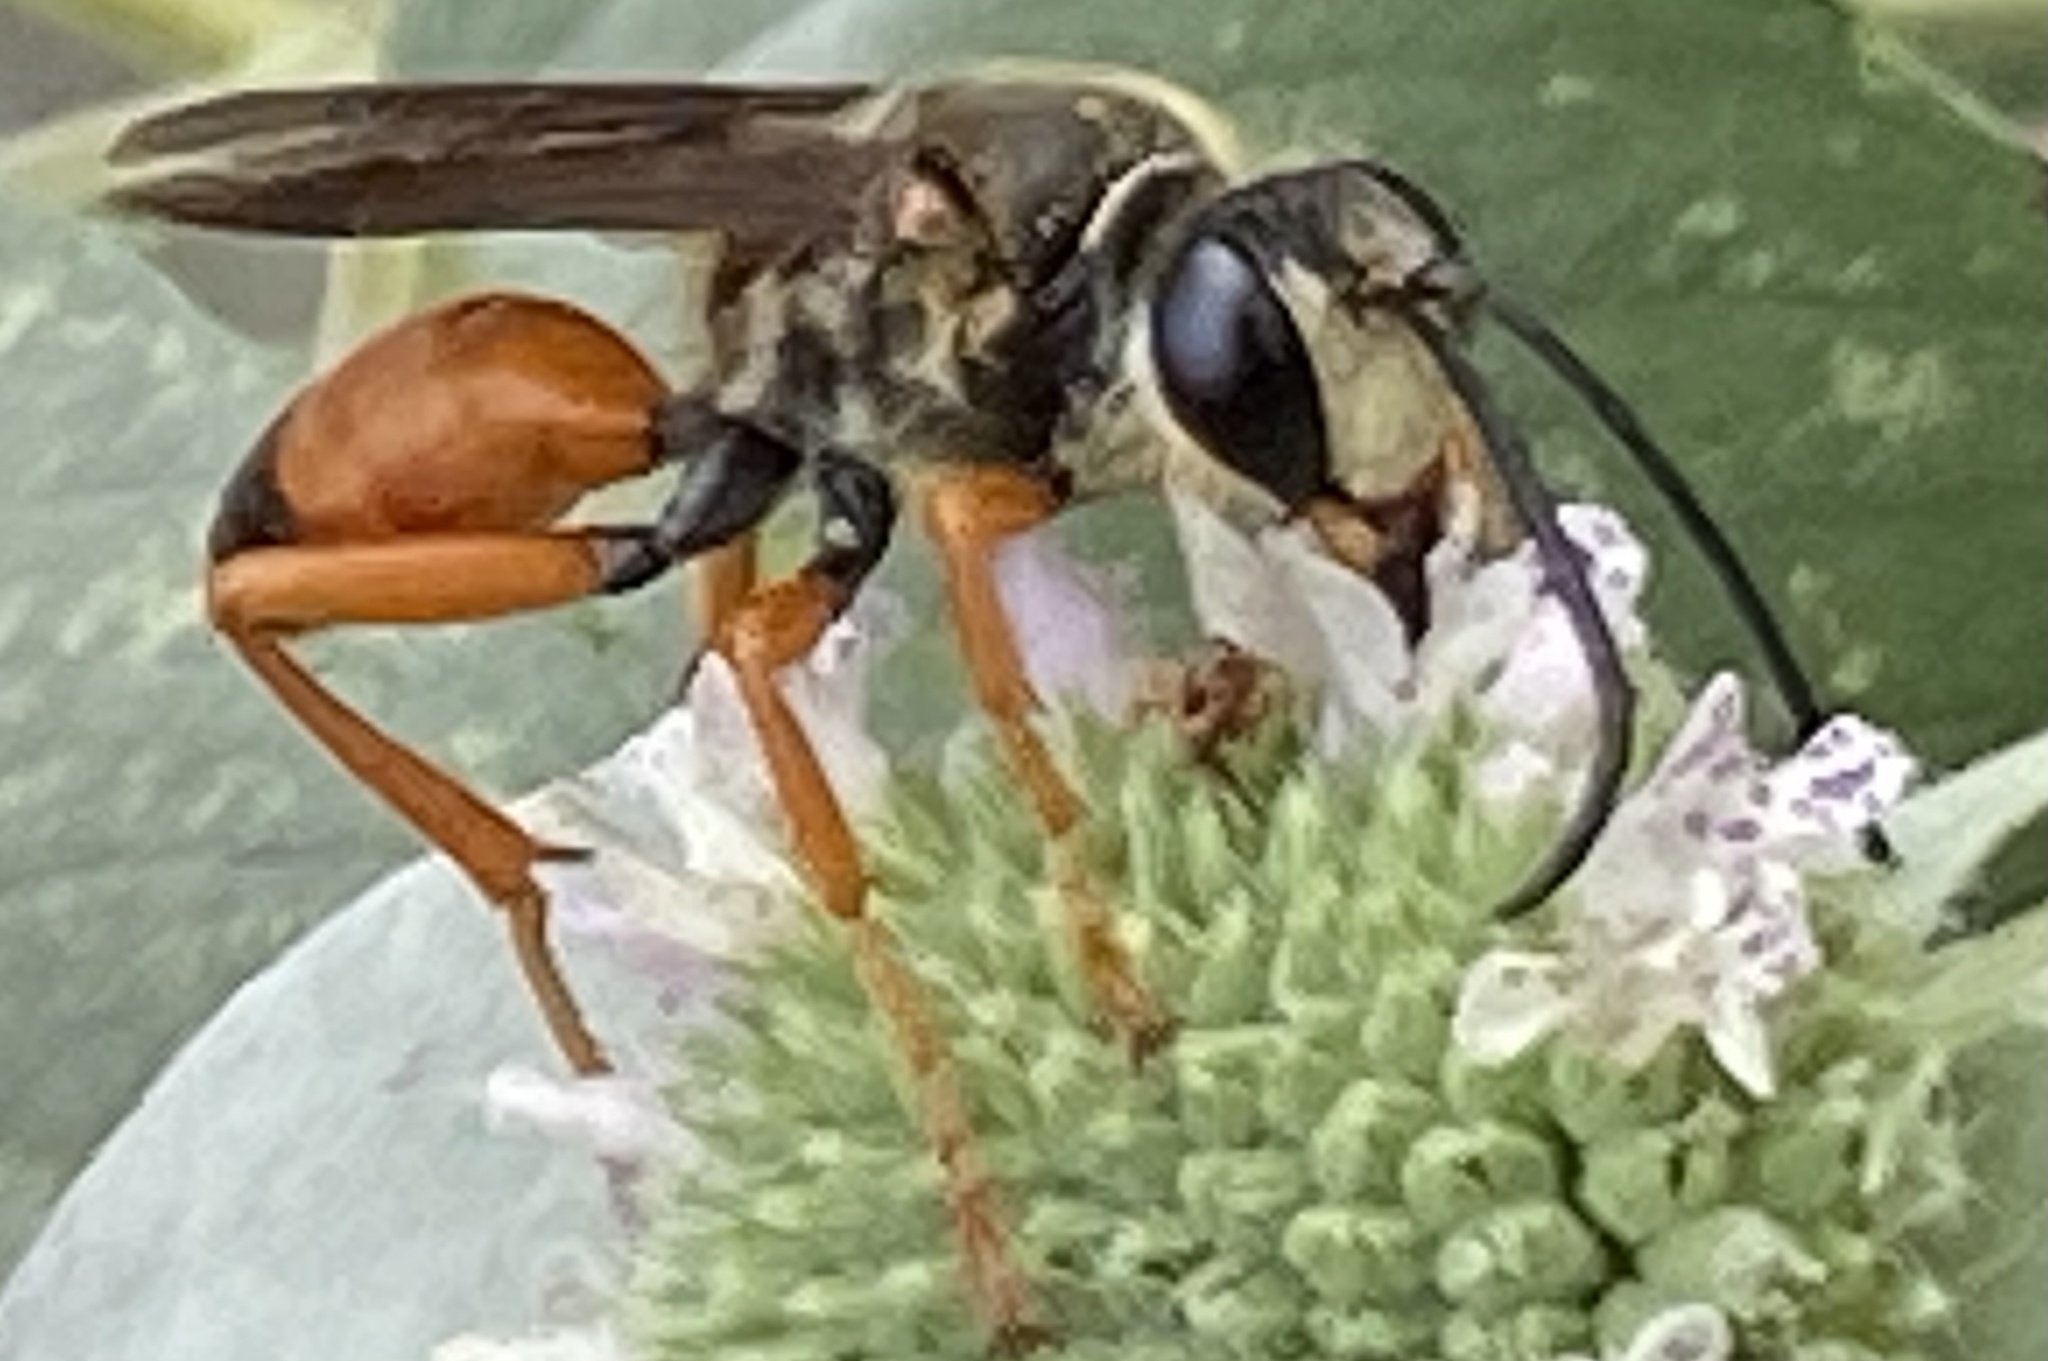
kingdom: Animalia
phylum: Arthropoda
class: Insecta
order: Hymenoptera
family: Sphecidae
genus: Sphex
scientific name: Sphex ichneumoneus
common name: Great golden digger wasp
